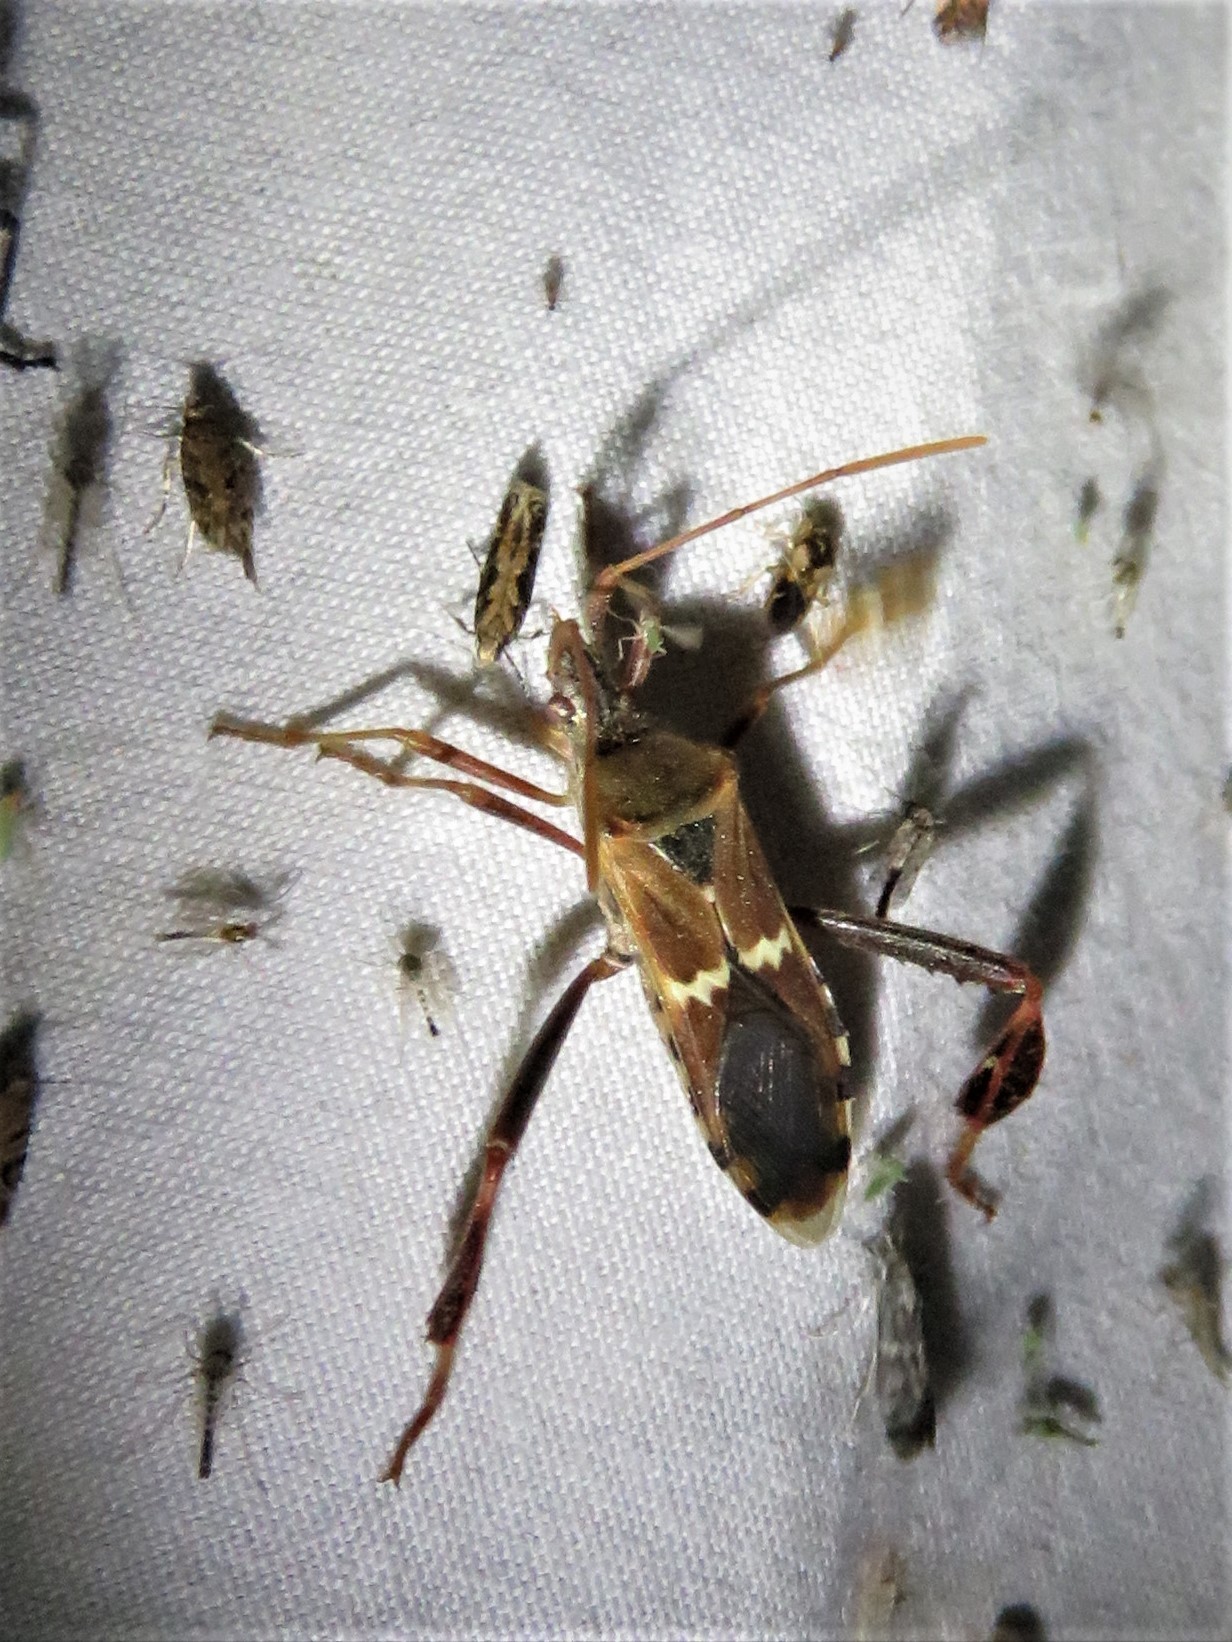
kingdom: Animalia
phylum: Arthropoda
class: Insecta
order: Hemiptera
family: Coreidae
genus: Leptoglossus
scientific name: Leptoglossus clypealis
